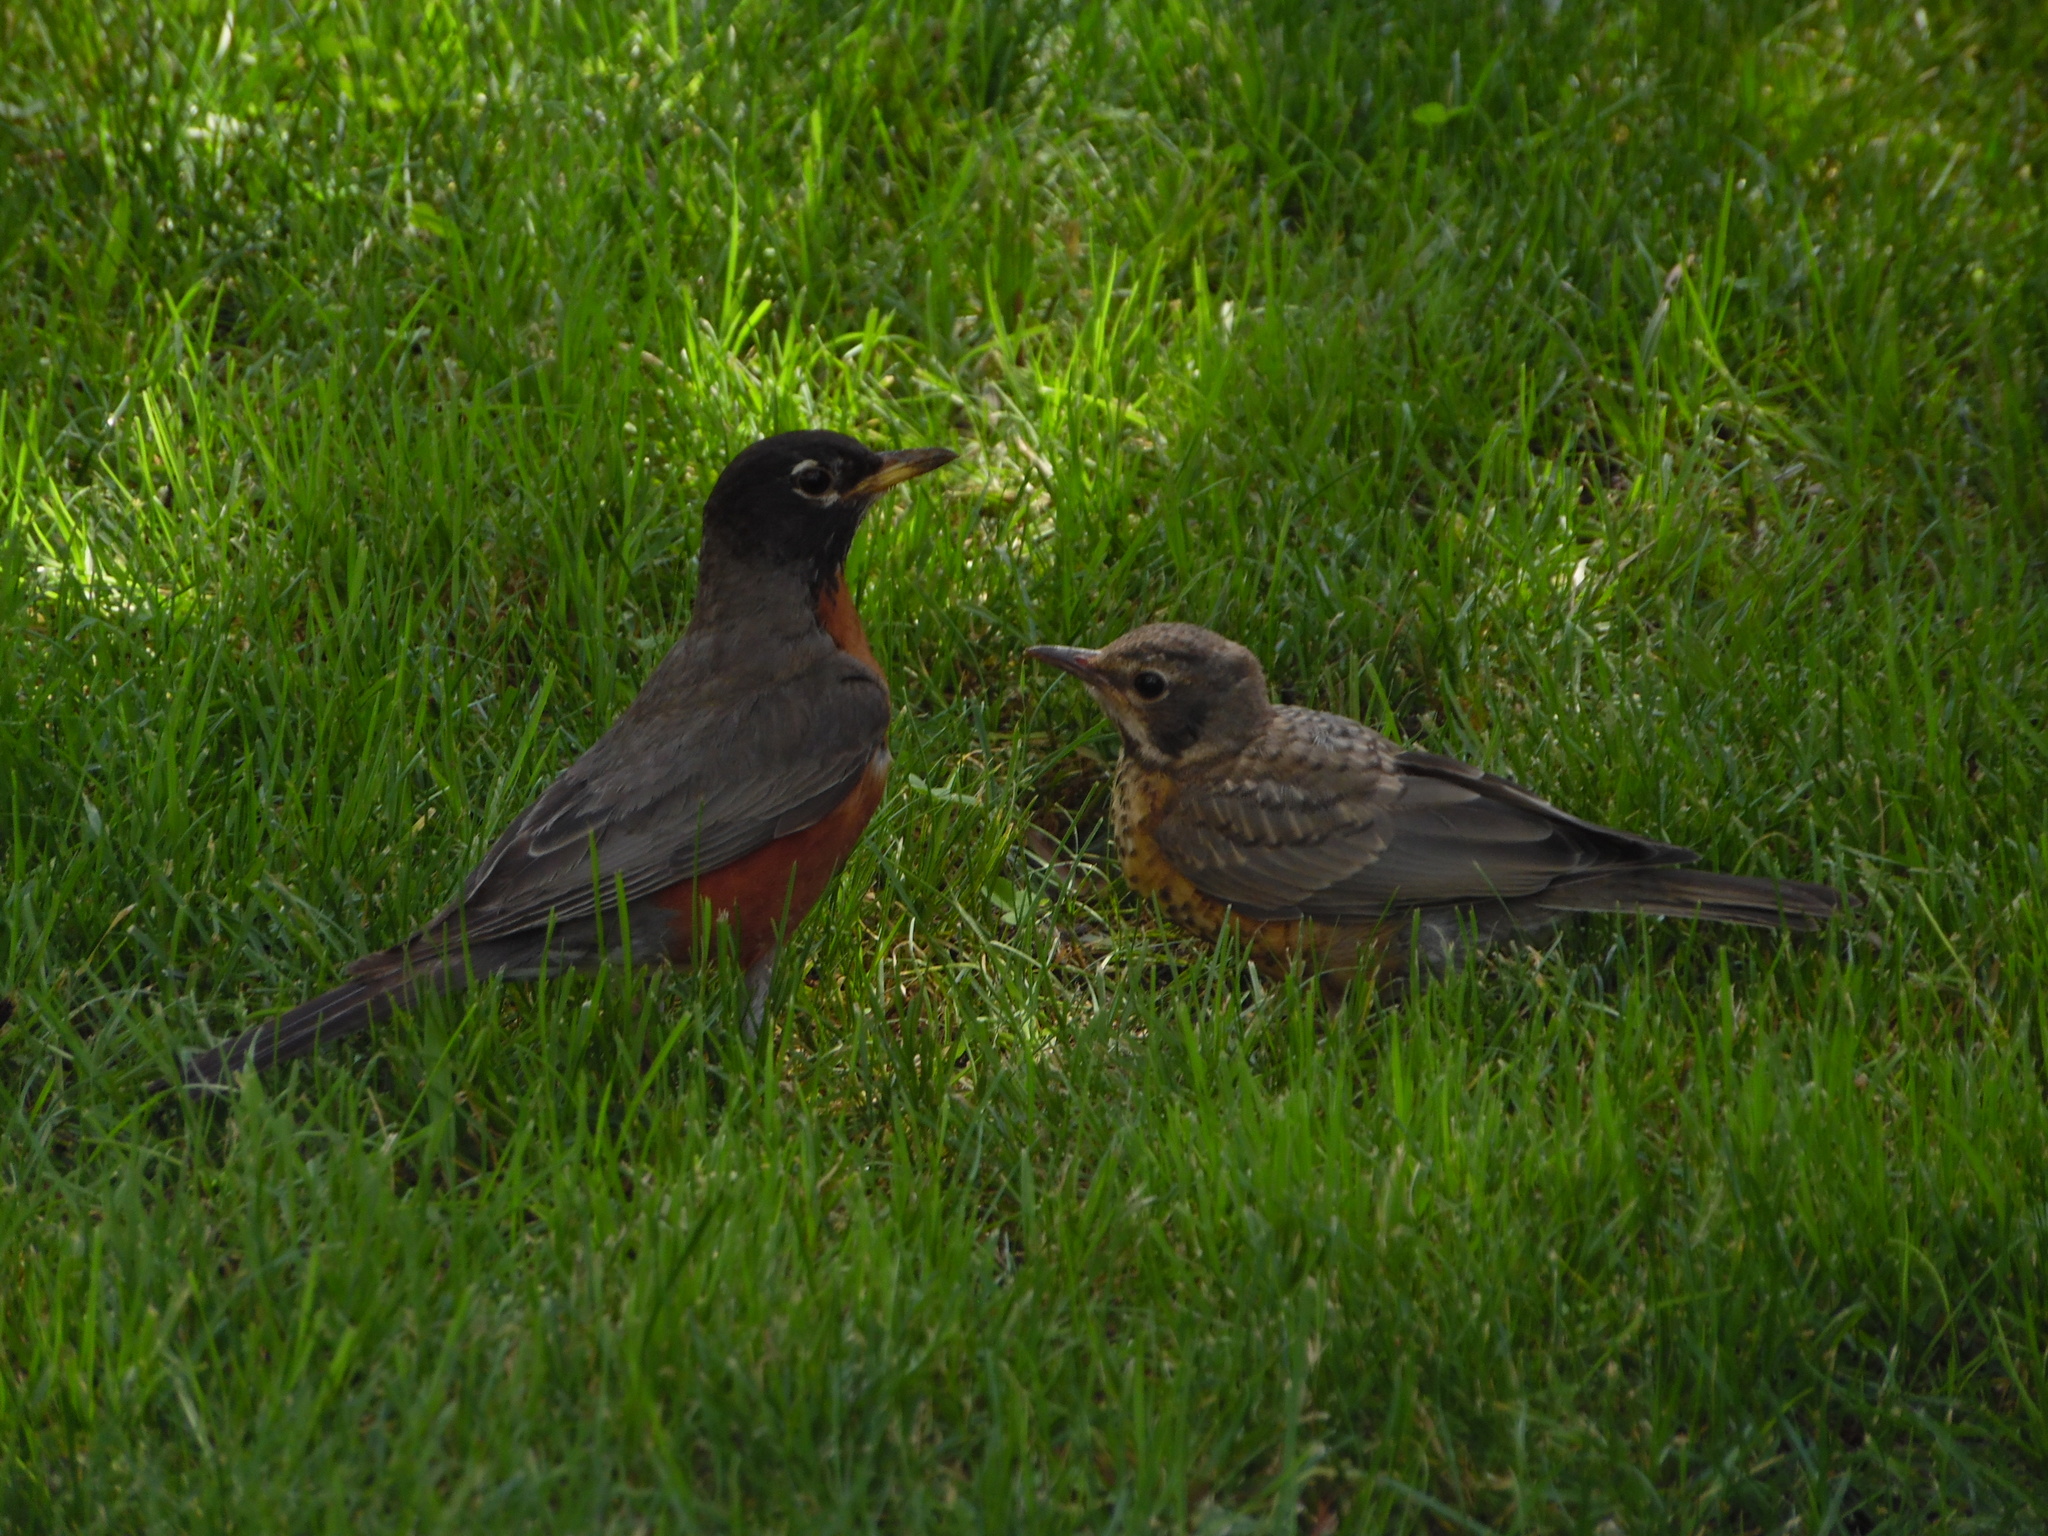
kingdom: Animalia
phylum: Chordata
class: Aves
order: Passeriformes
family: Turdidae
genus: Turdus
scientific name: Turdus migratorius
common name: American robin
